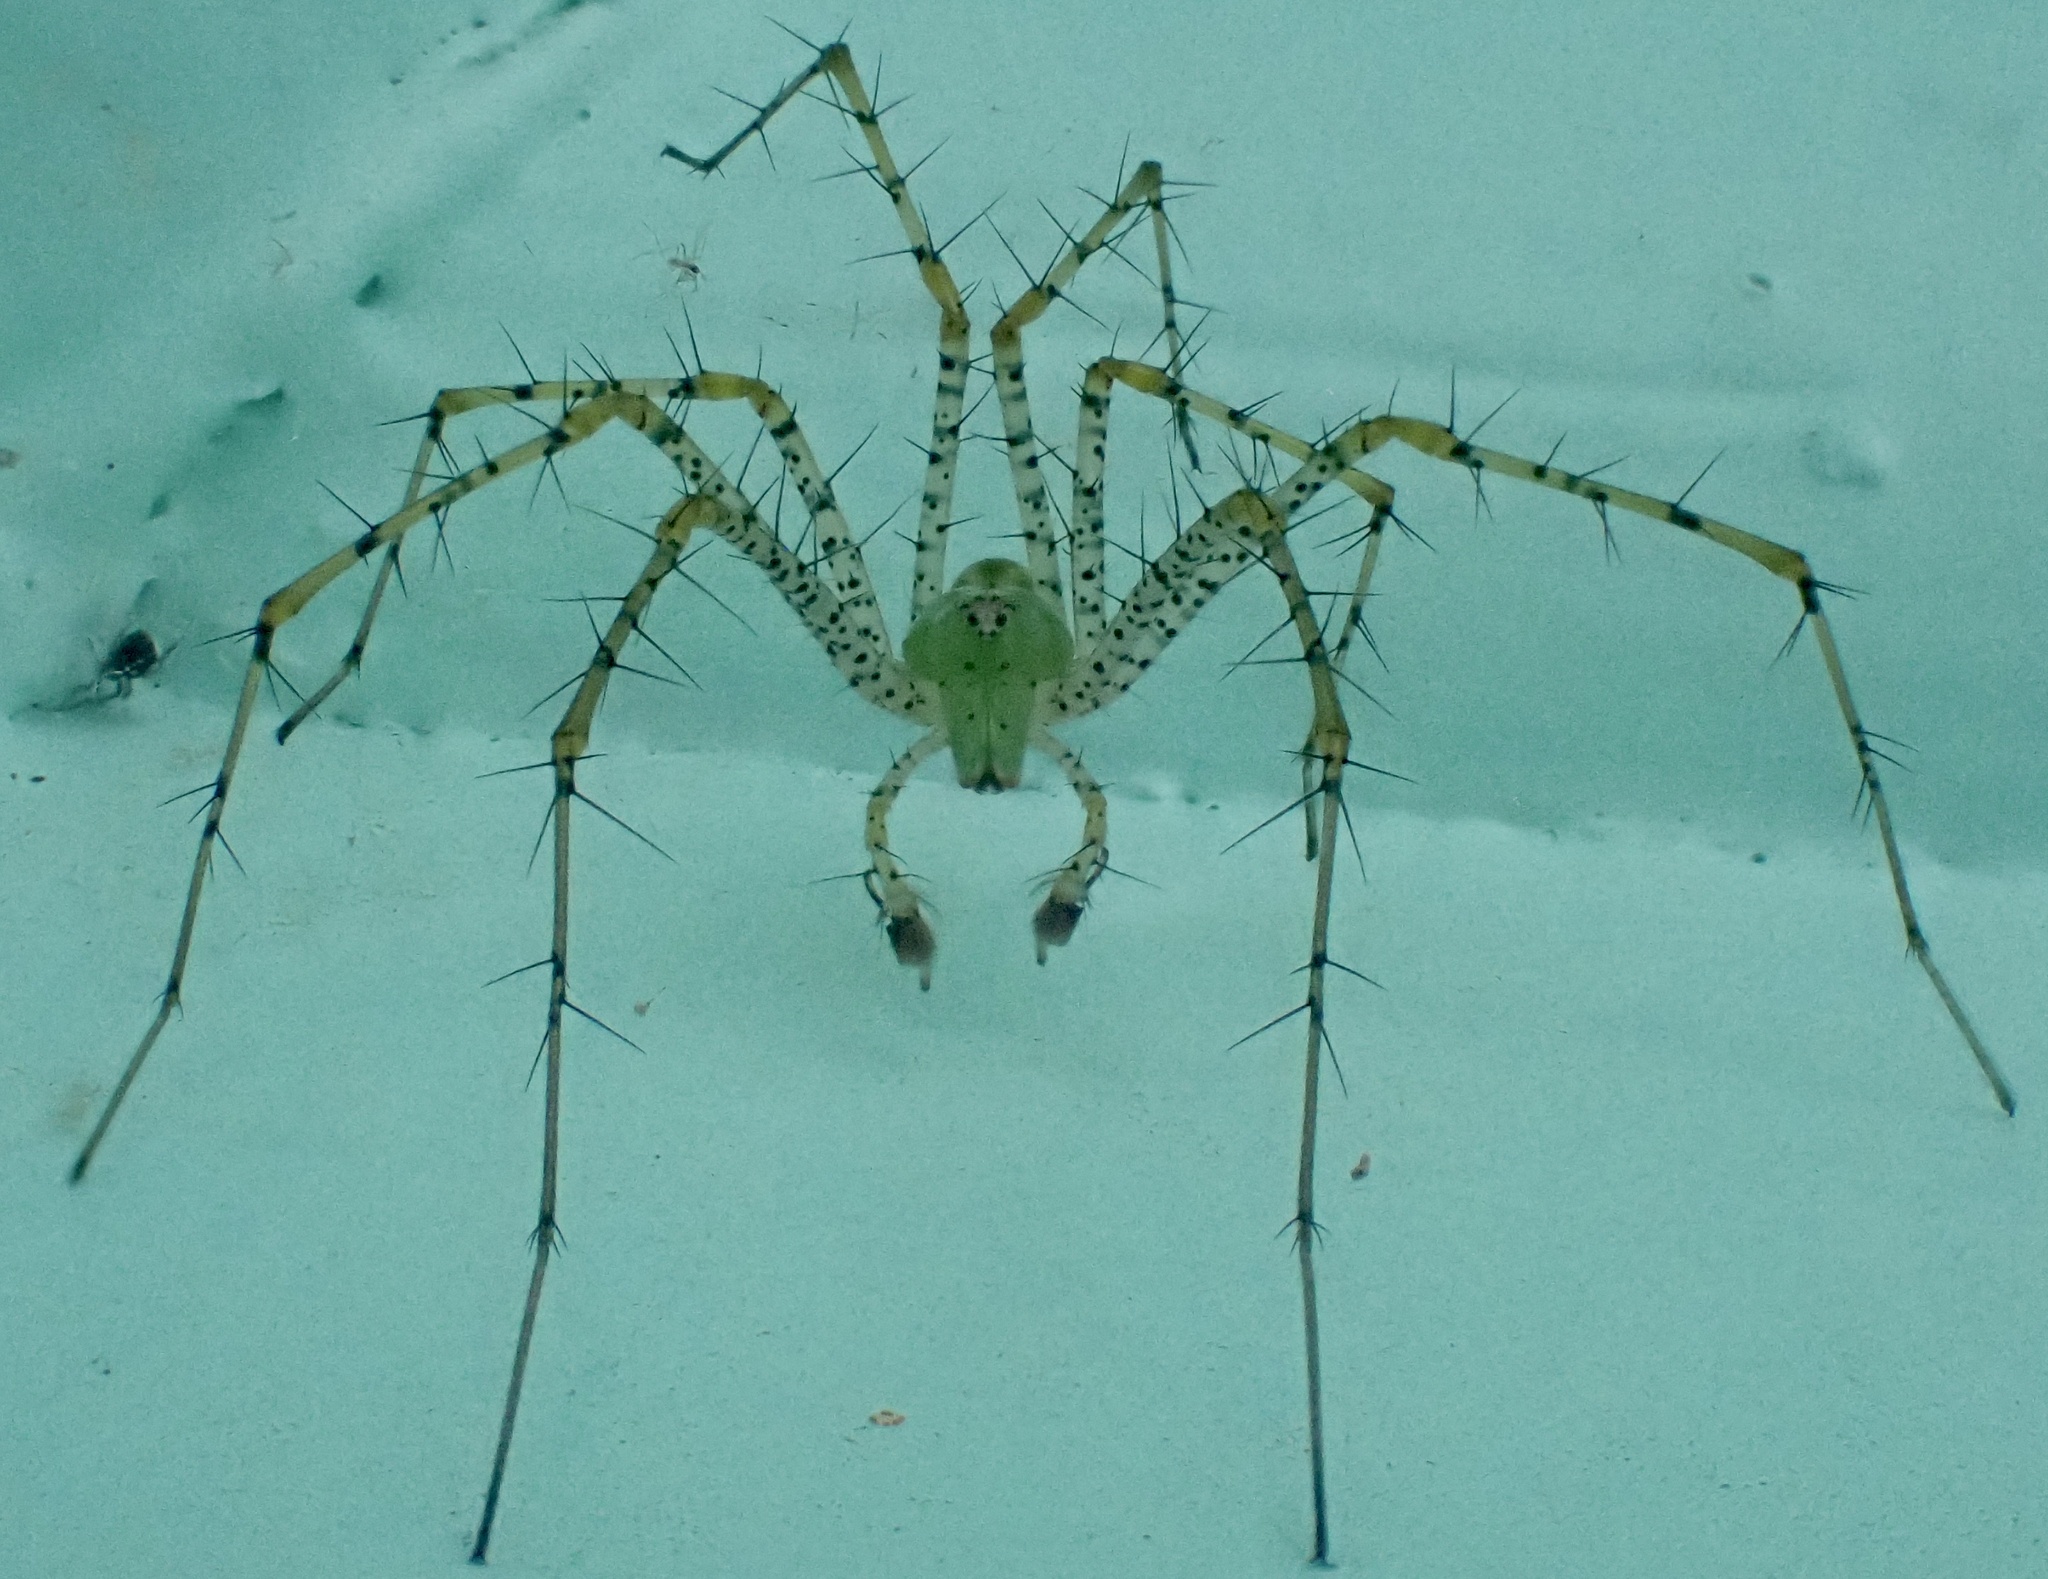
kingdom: Animalia
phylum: Arthropoda
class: Arachnida
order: Araneae
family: Oxyopidae
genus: Peucetia
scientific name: Peucetia viridans
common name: Lynx spiders
